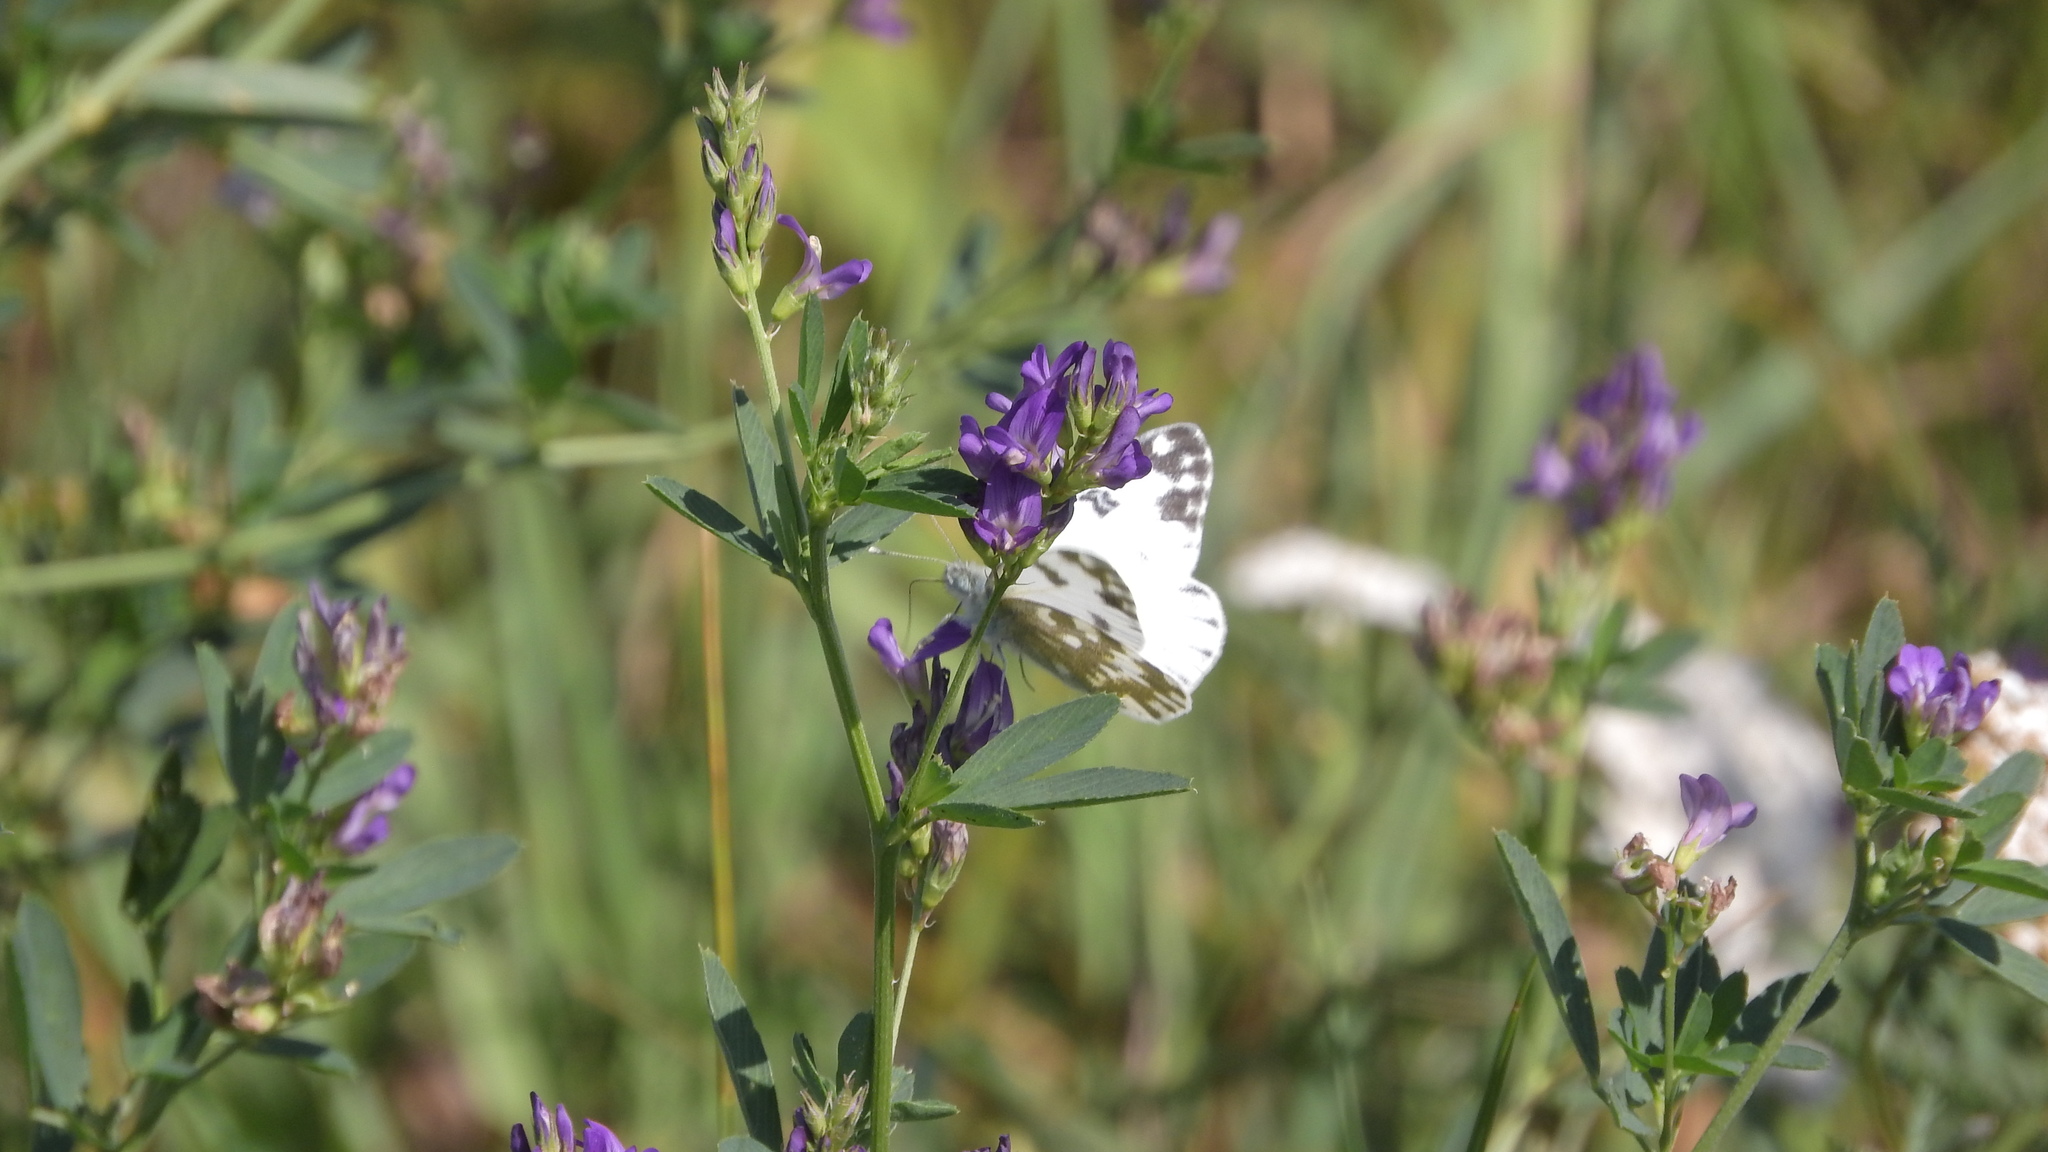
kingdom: Animalia
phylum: Arthropoda
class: Insecta
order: Lepidoptera
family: Pieridae
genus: Pontia
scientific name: Pontia edusa
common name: Eastern bath white
